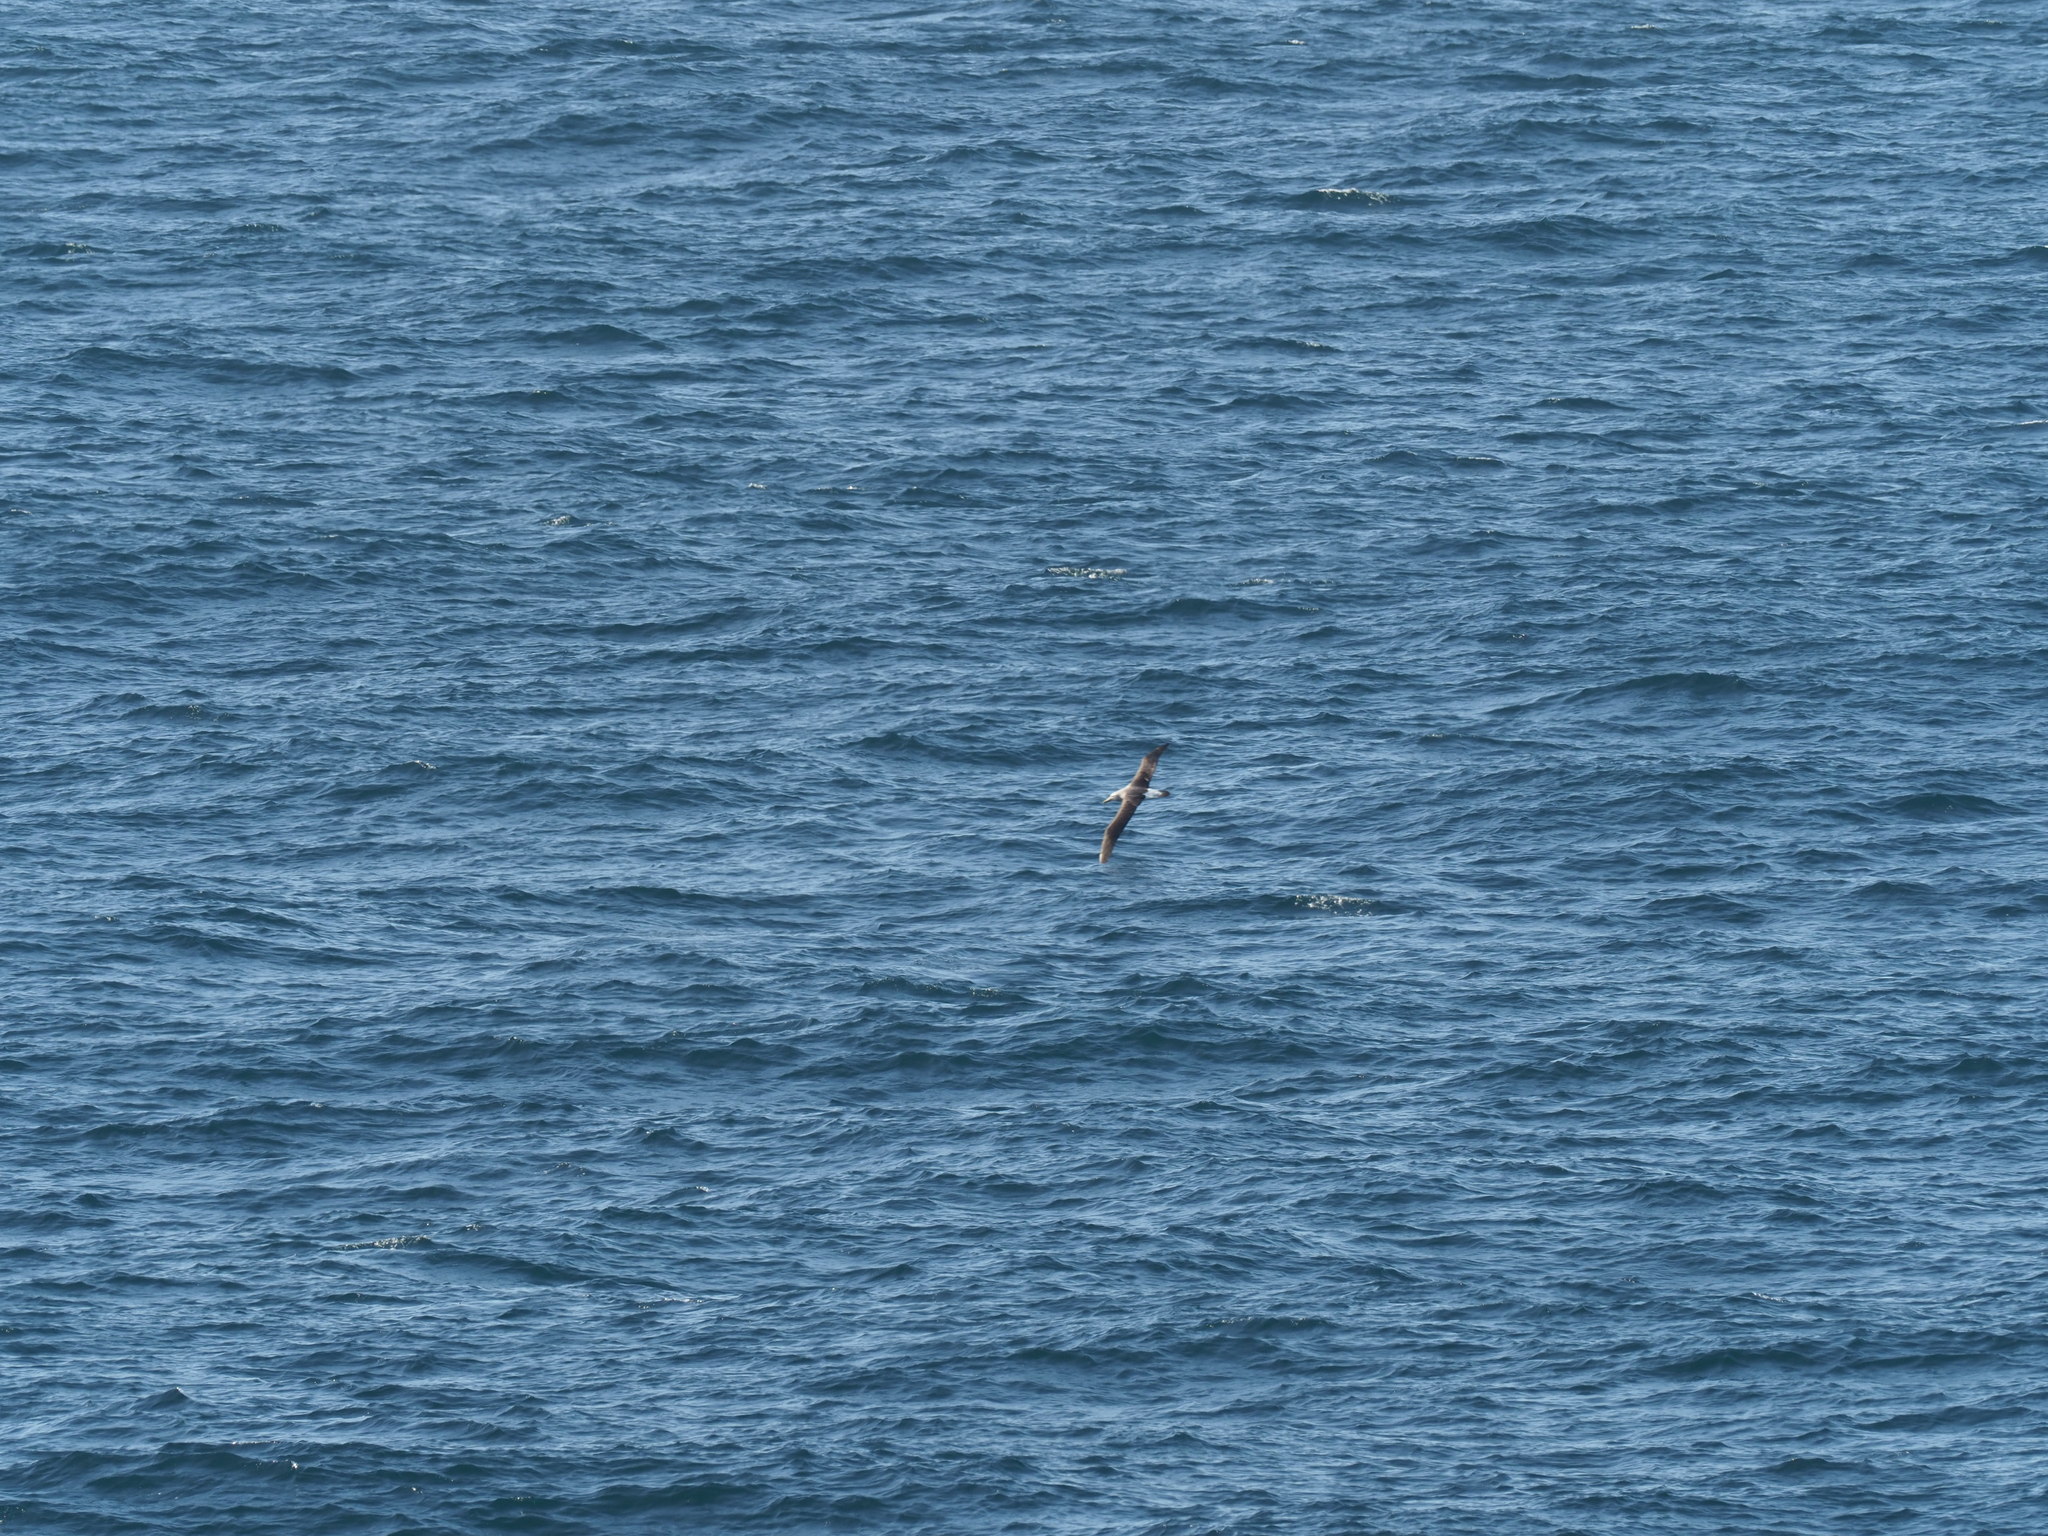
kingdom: Animalia
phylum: Chordata
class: Aves
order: Procellariiformes
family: Diomedeidae
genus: Thalassarche
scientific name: Thalassarche salvini
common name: Salvin's albatross
